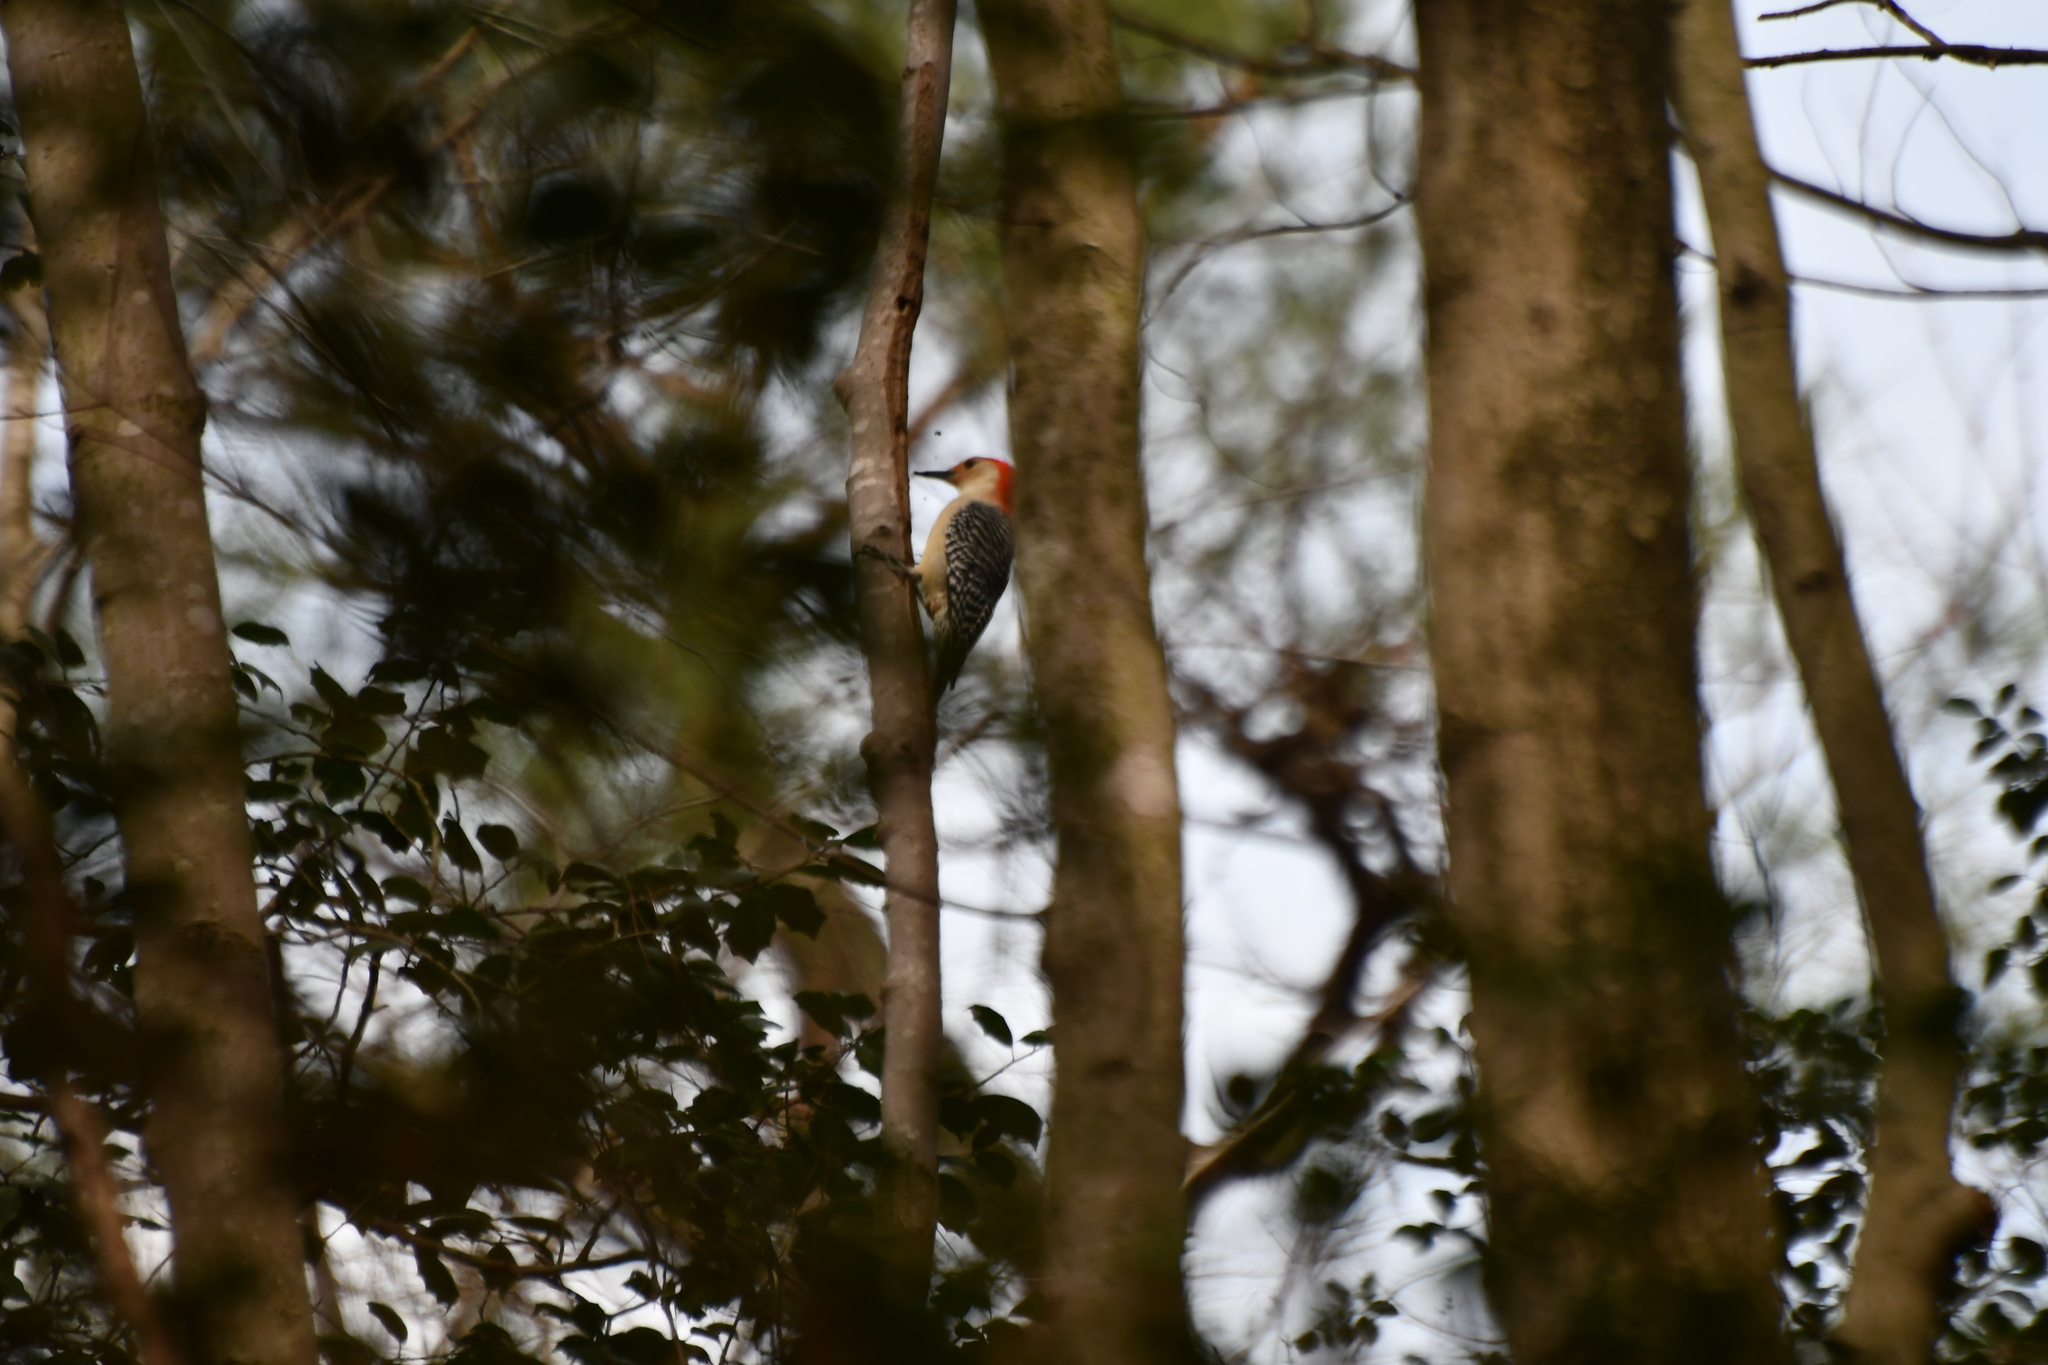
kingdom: Animalia
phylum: Chordata
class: Aves
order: Piciformes
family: Picidae
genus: Melanerpes
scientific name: Melanerpes carolinus
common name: Red-bellied woodpecker
